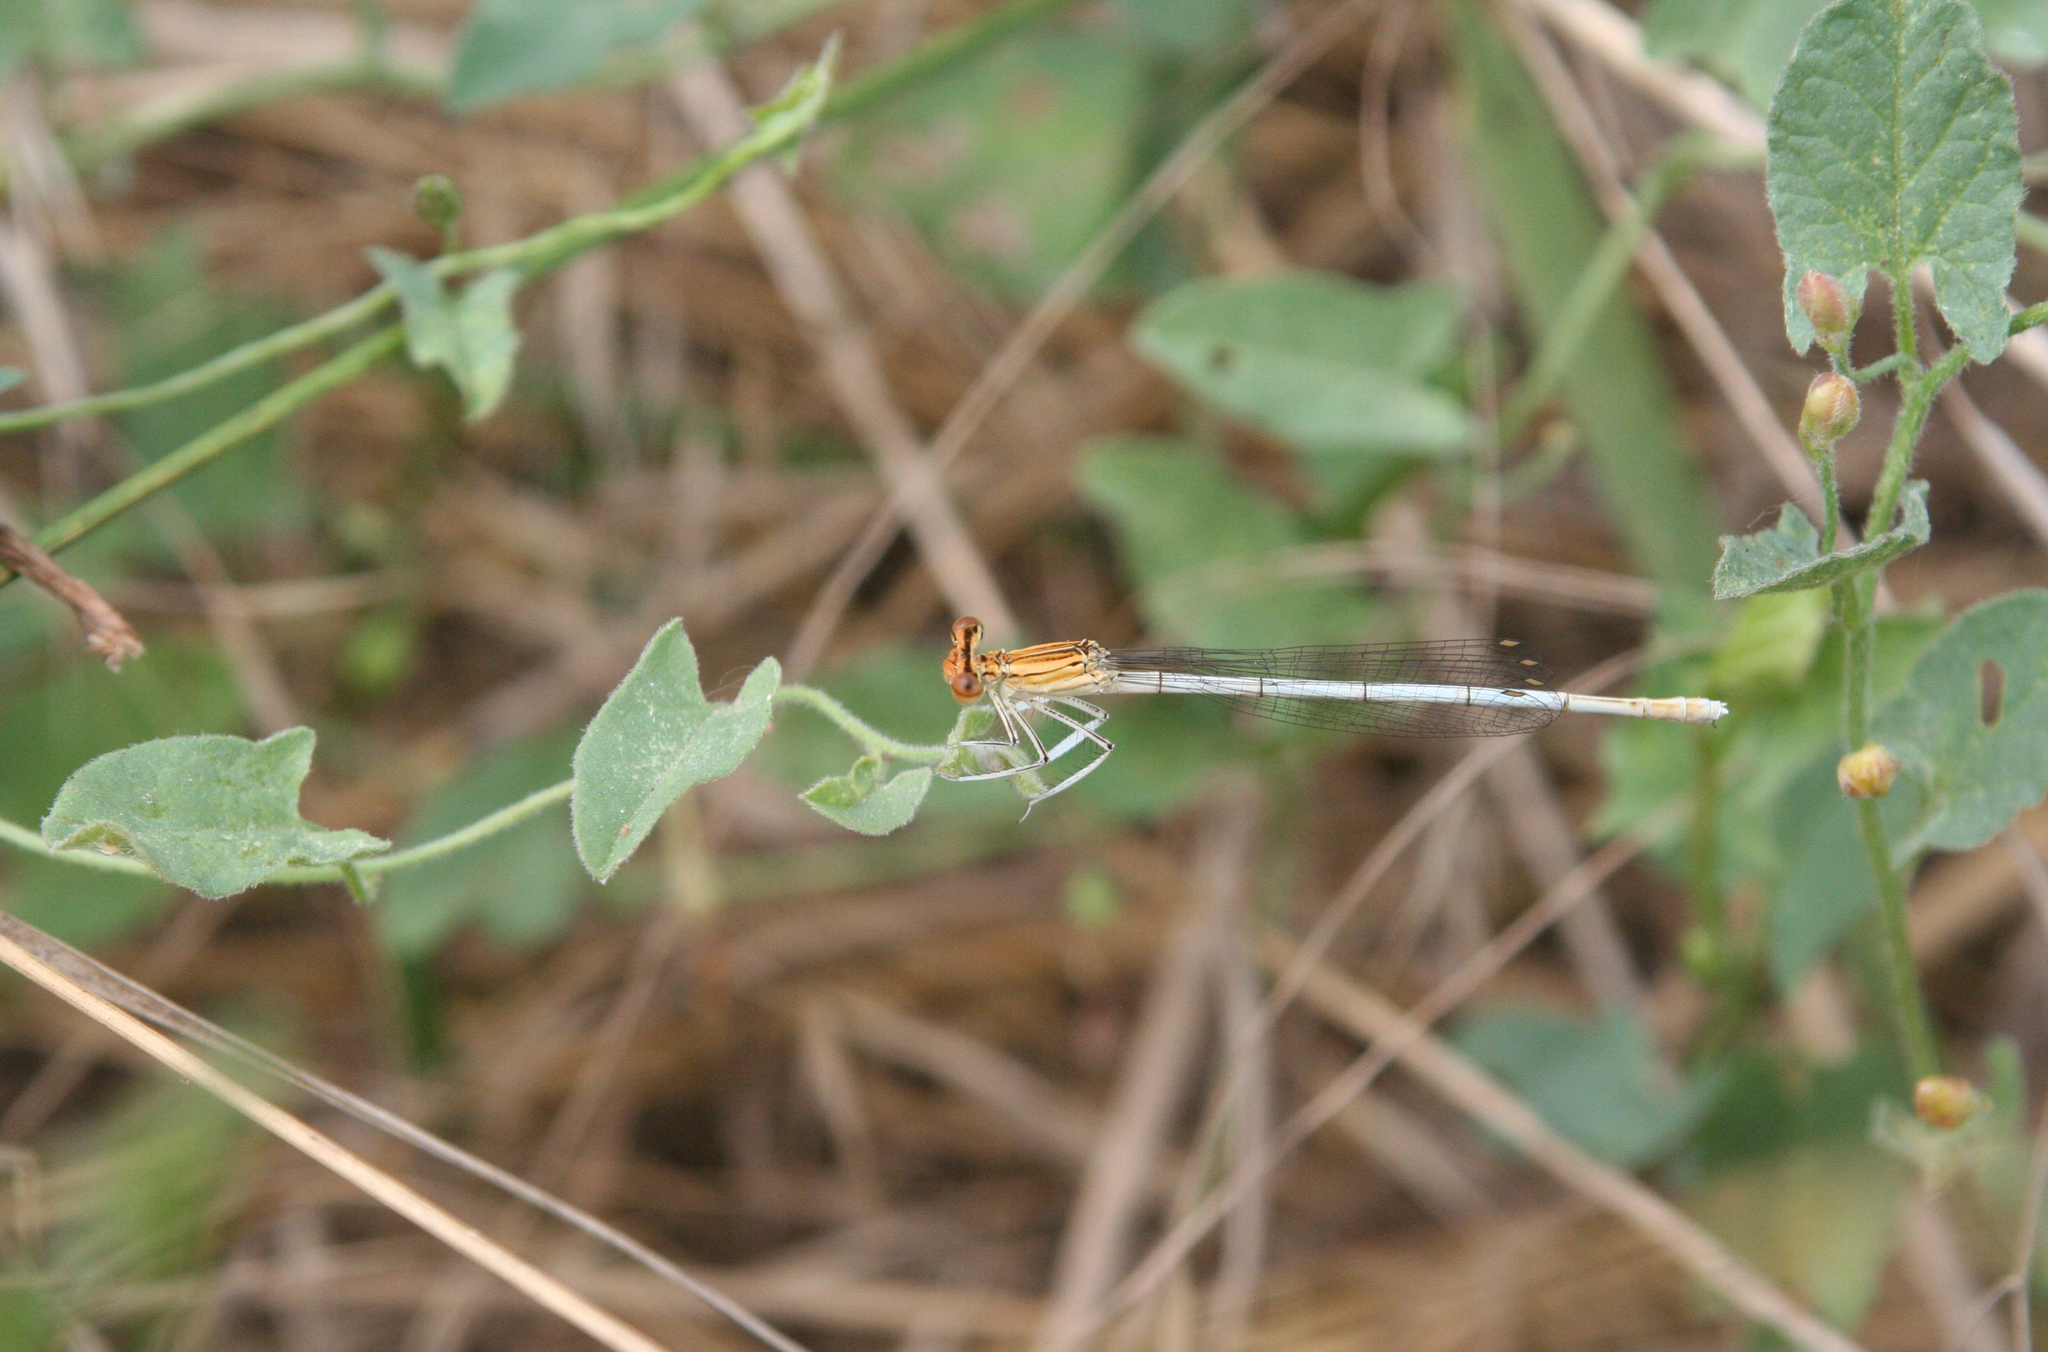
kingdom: Animalia
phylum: Arthropoda
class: Insecta
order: Odonata
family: Platycnemididae
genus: Platycnemis
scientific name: Platycnemis pennipes
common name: White-legged damselfly
